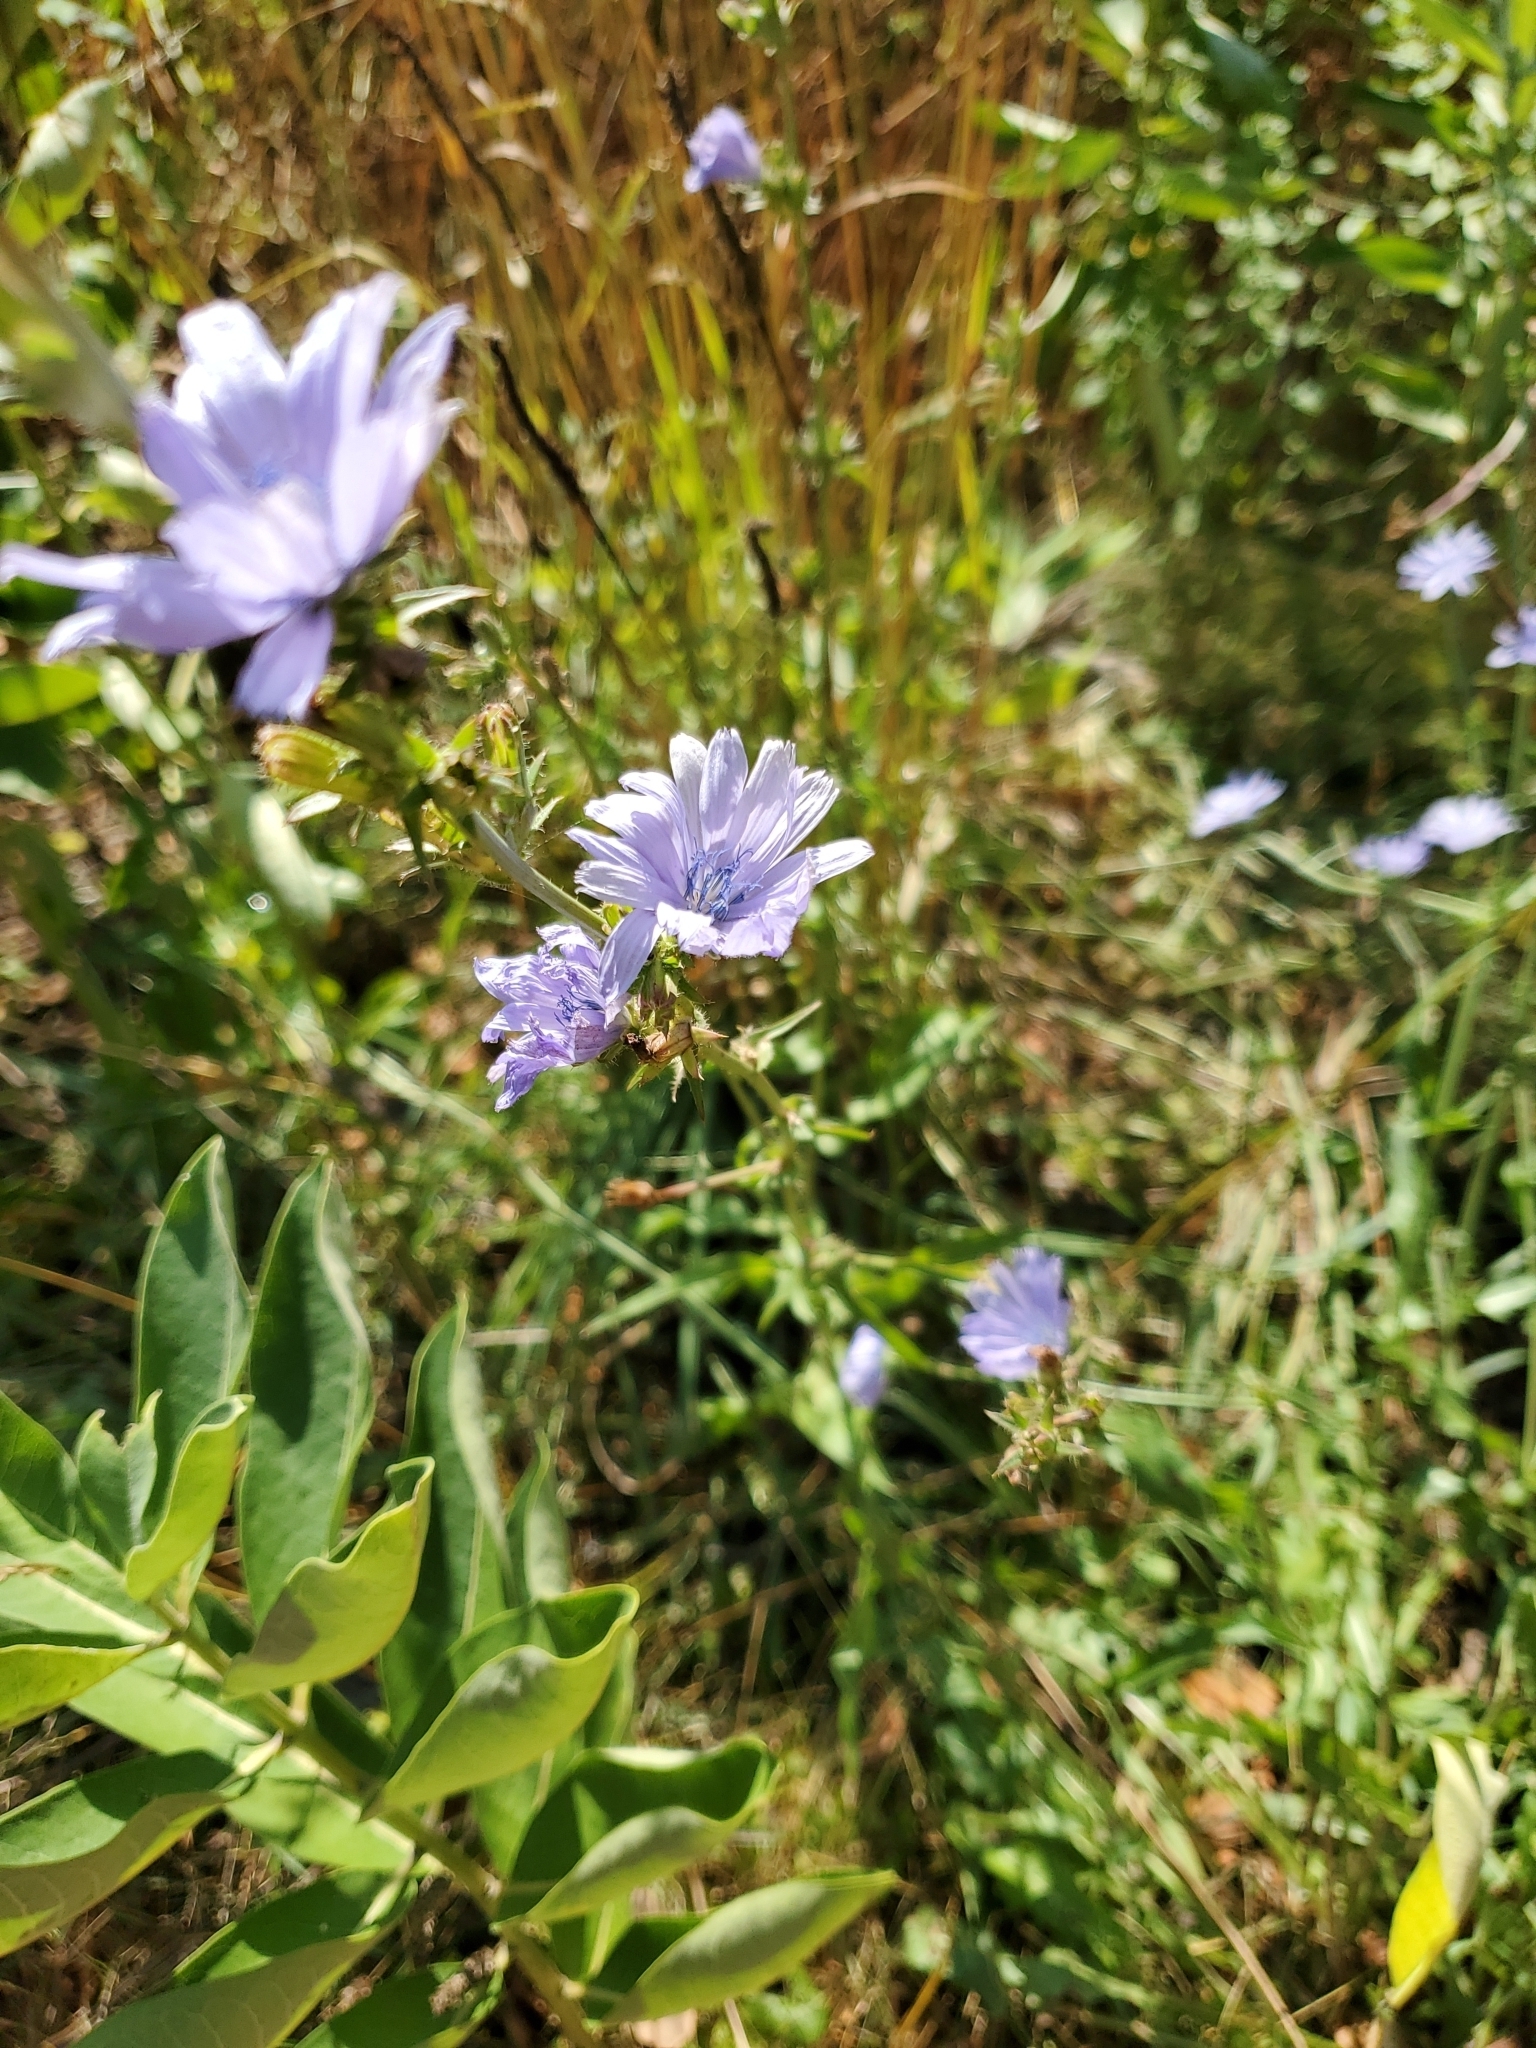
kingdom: Plantae
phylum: Tracheophyta
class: Magnoliopsida
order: Asterales
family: Asteraceae
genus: Cichorium
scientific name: Cichorium intybus
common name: Chicory
